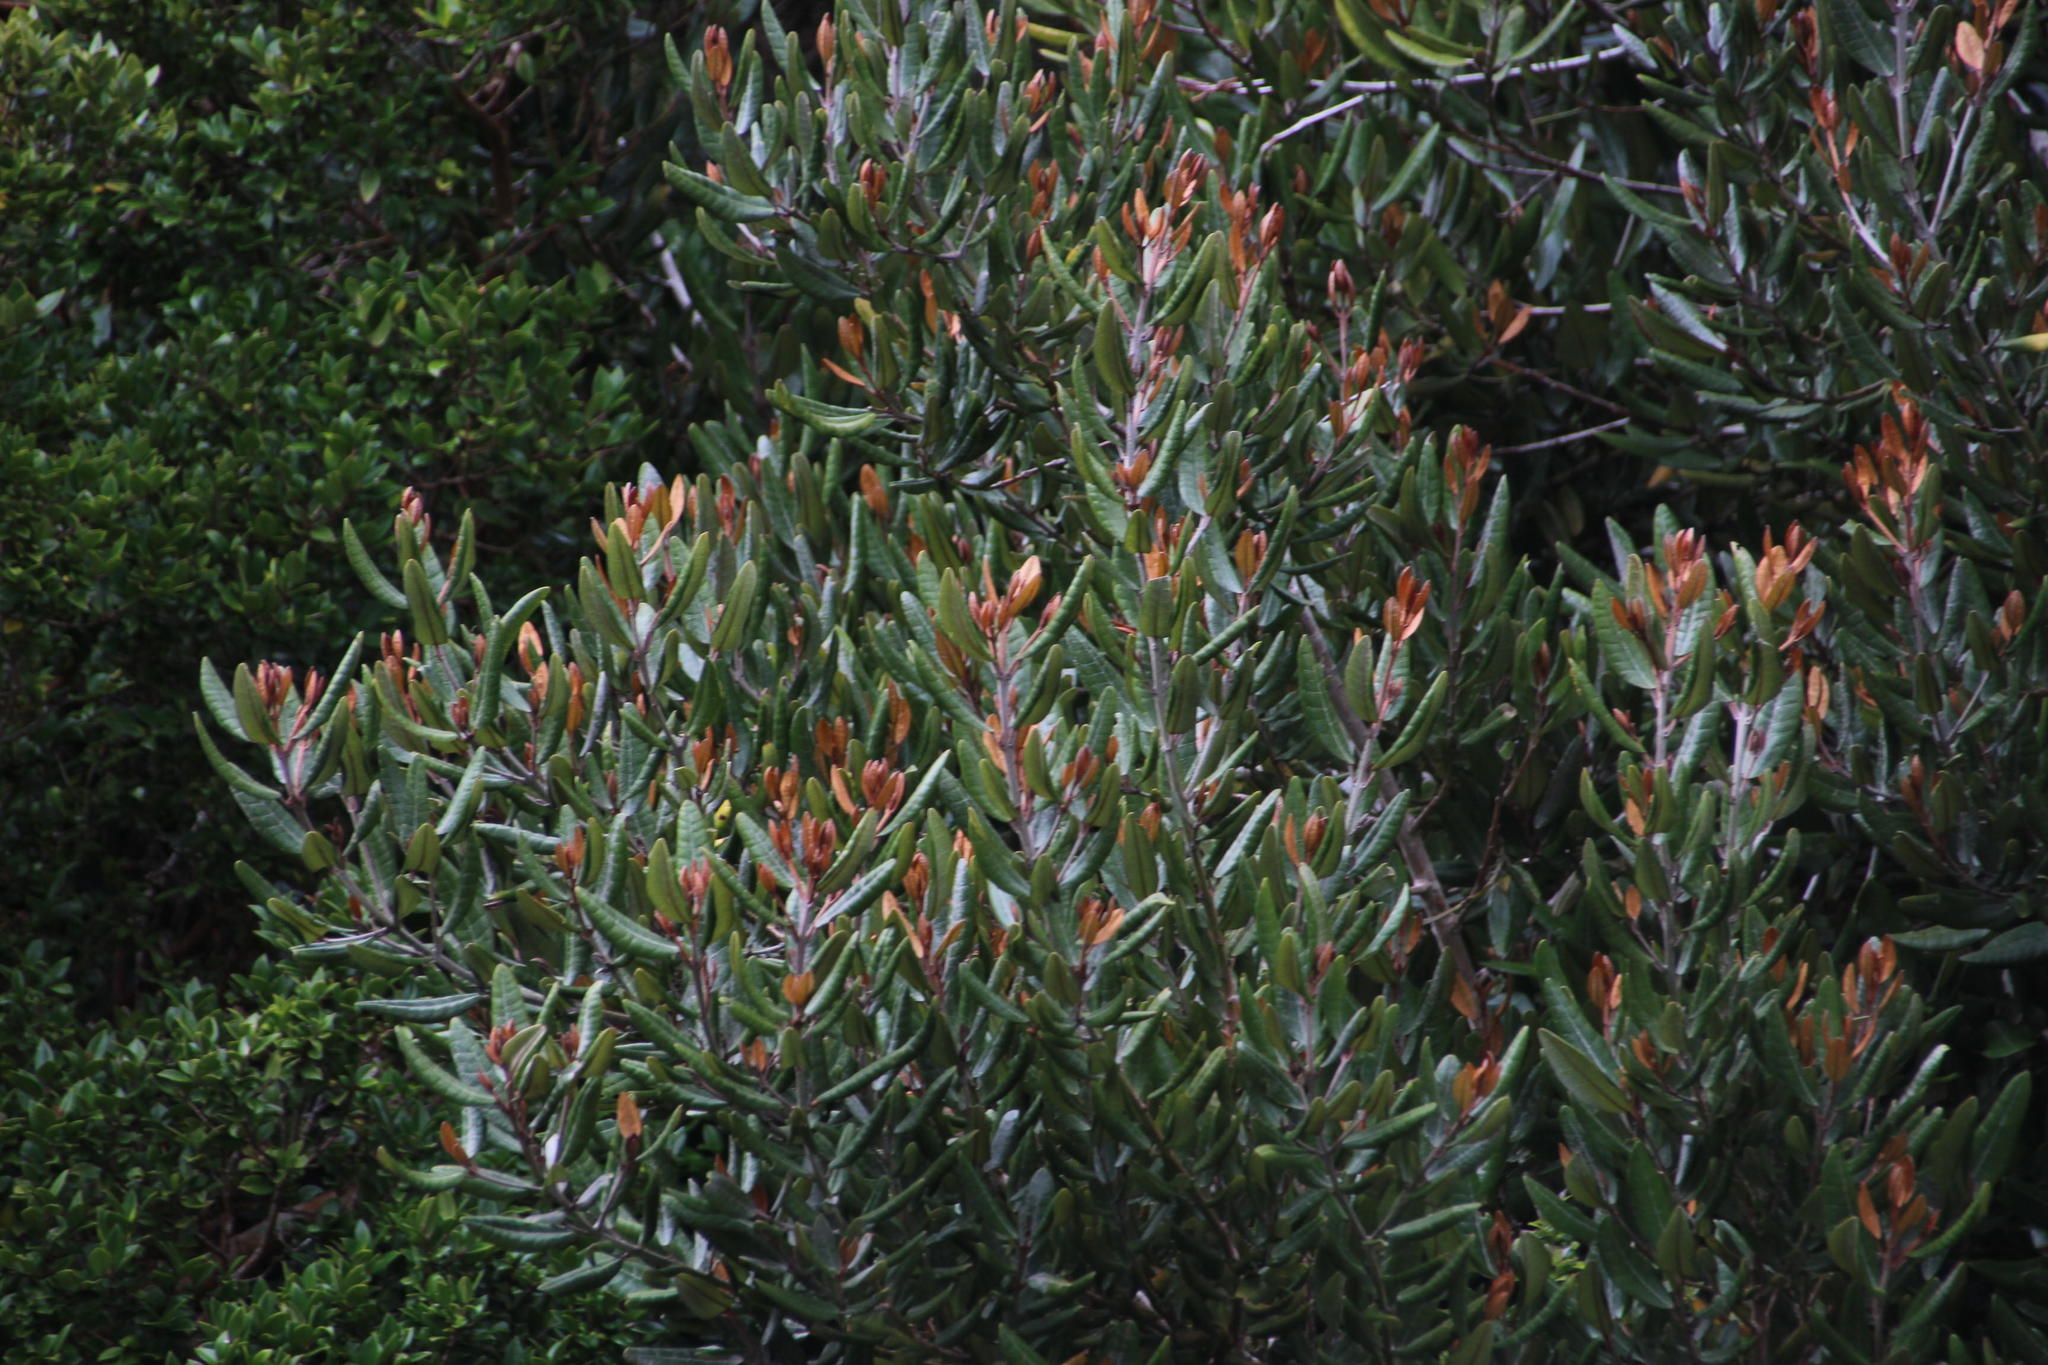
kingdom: Plantae
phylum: Tracheophyta
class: Magnoliopsida
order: Berberidopsidales
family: Aextoxicaceae
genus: Aextoxicon
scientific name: Aextoxicon punctatum
